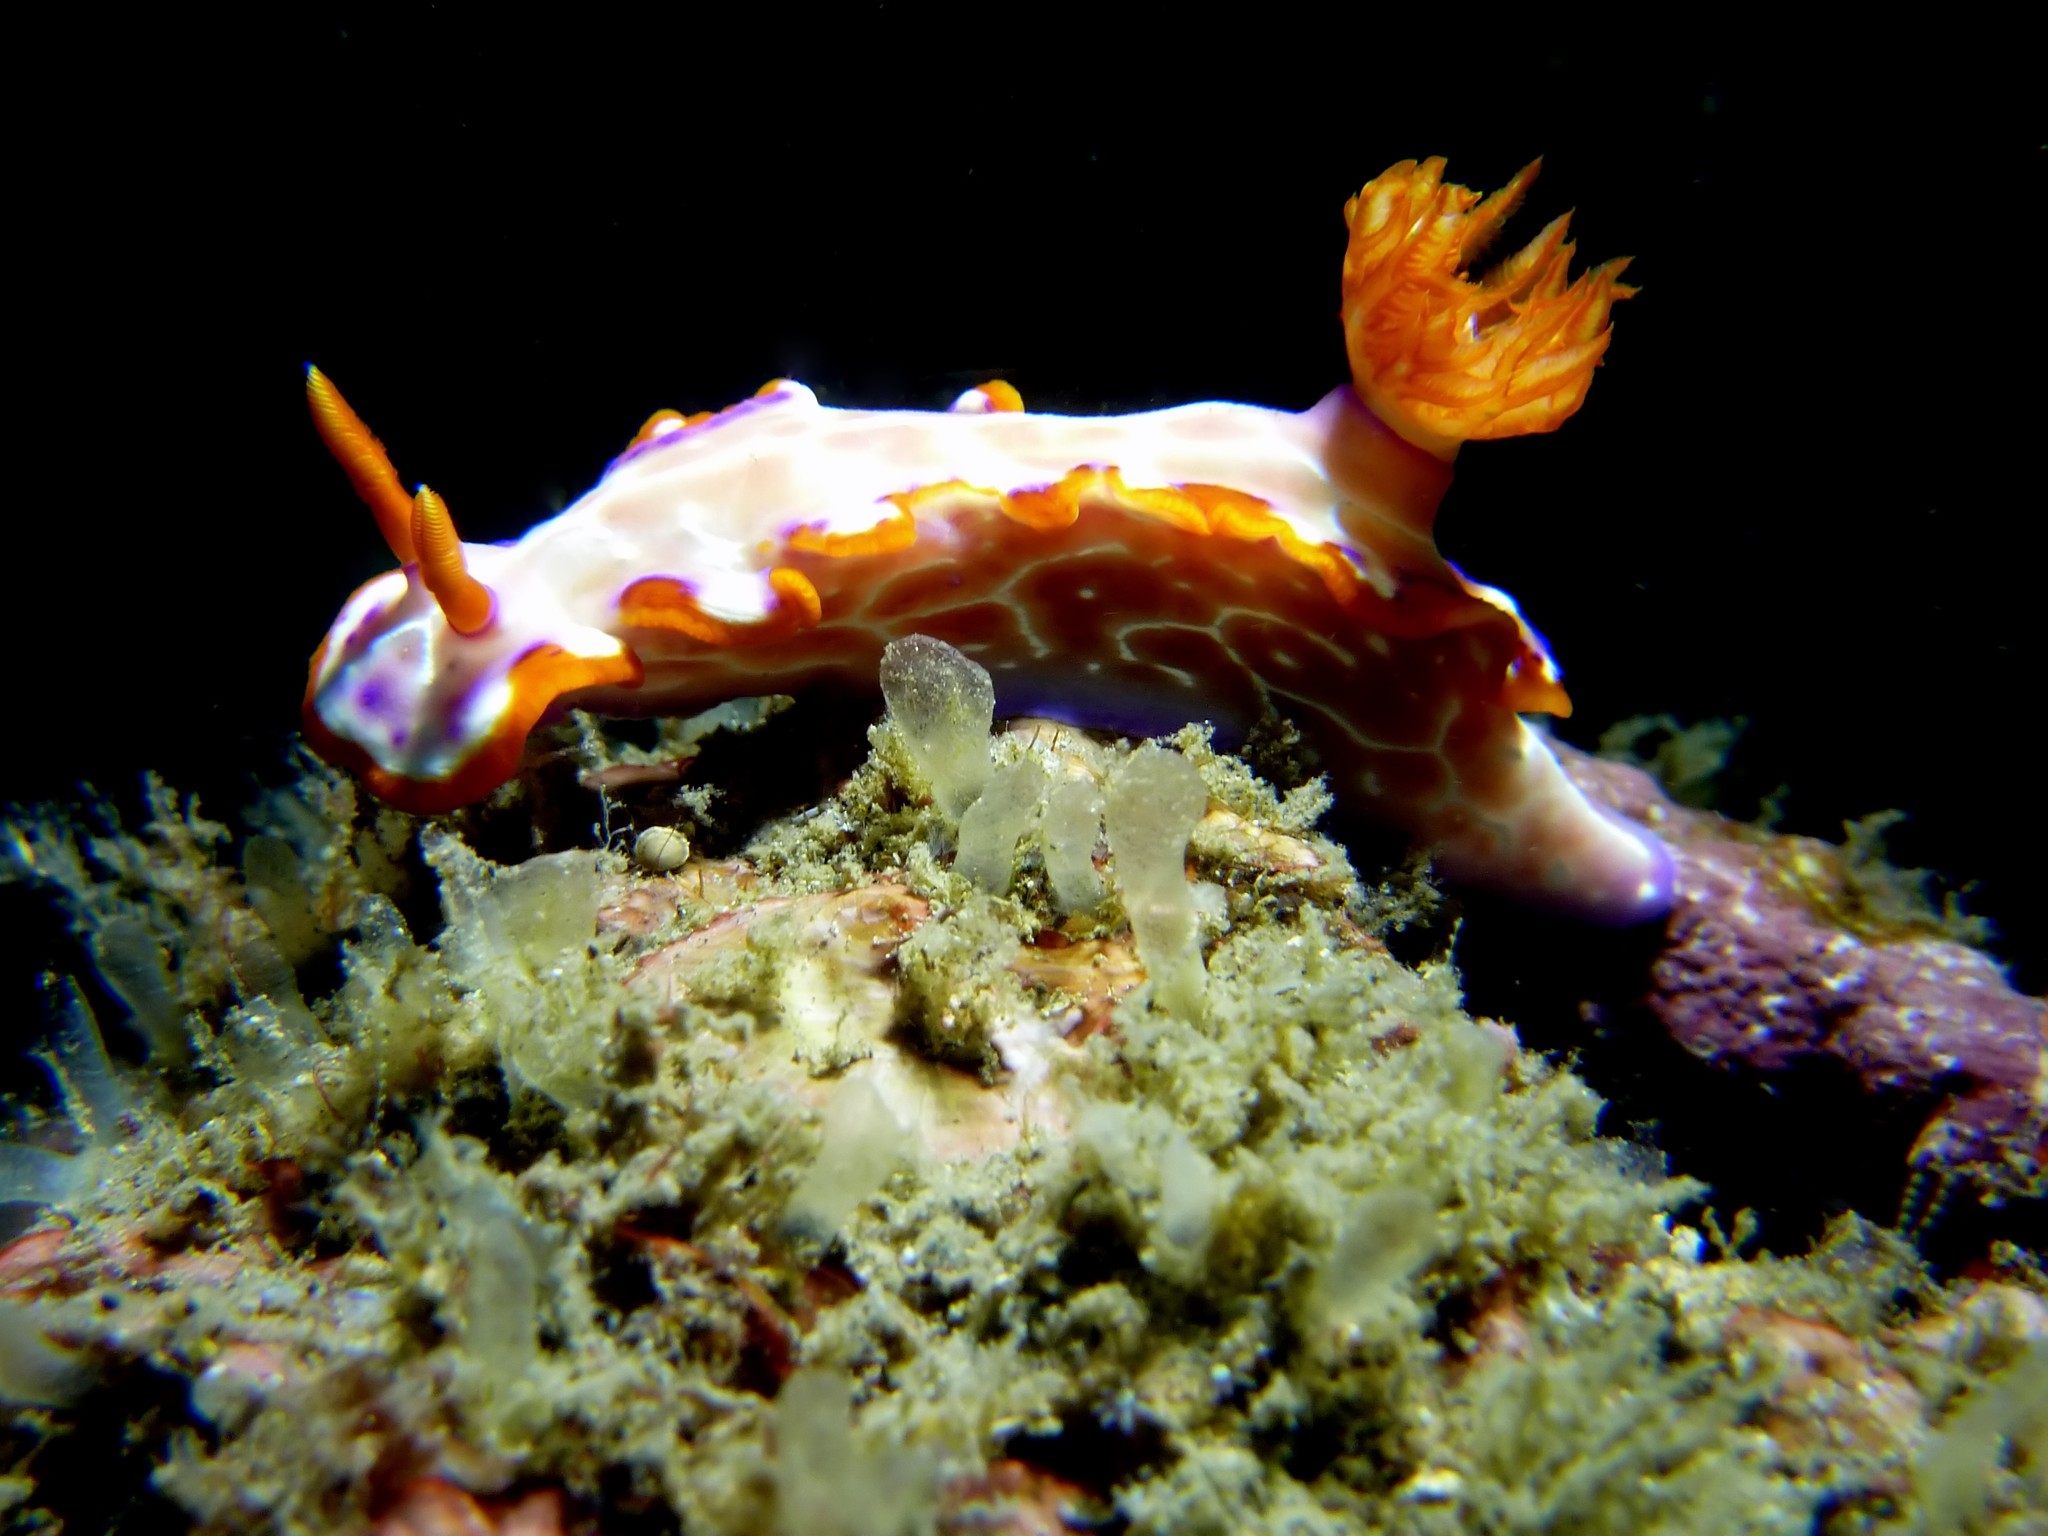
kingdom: Animalia
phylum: Mollusca
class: Gastropoda
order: Nudibranchia
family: Chromodorididae
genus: Hypselodoris
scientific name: Hypselodoris iacula
